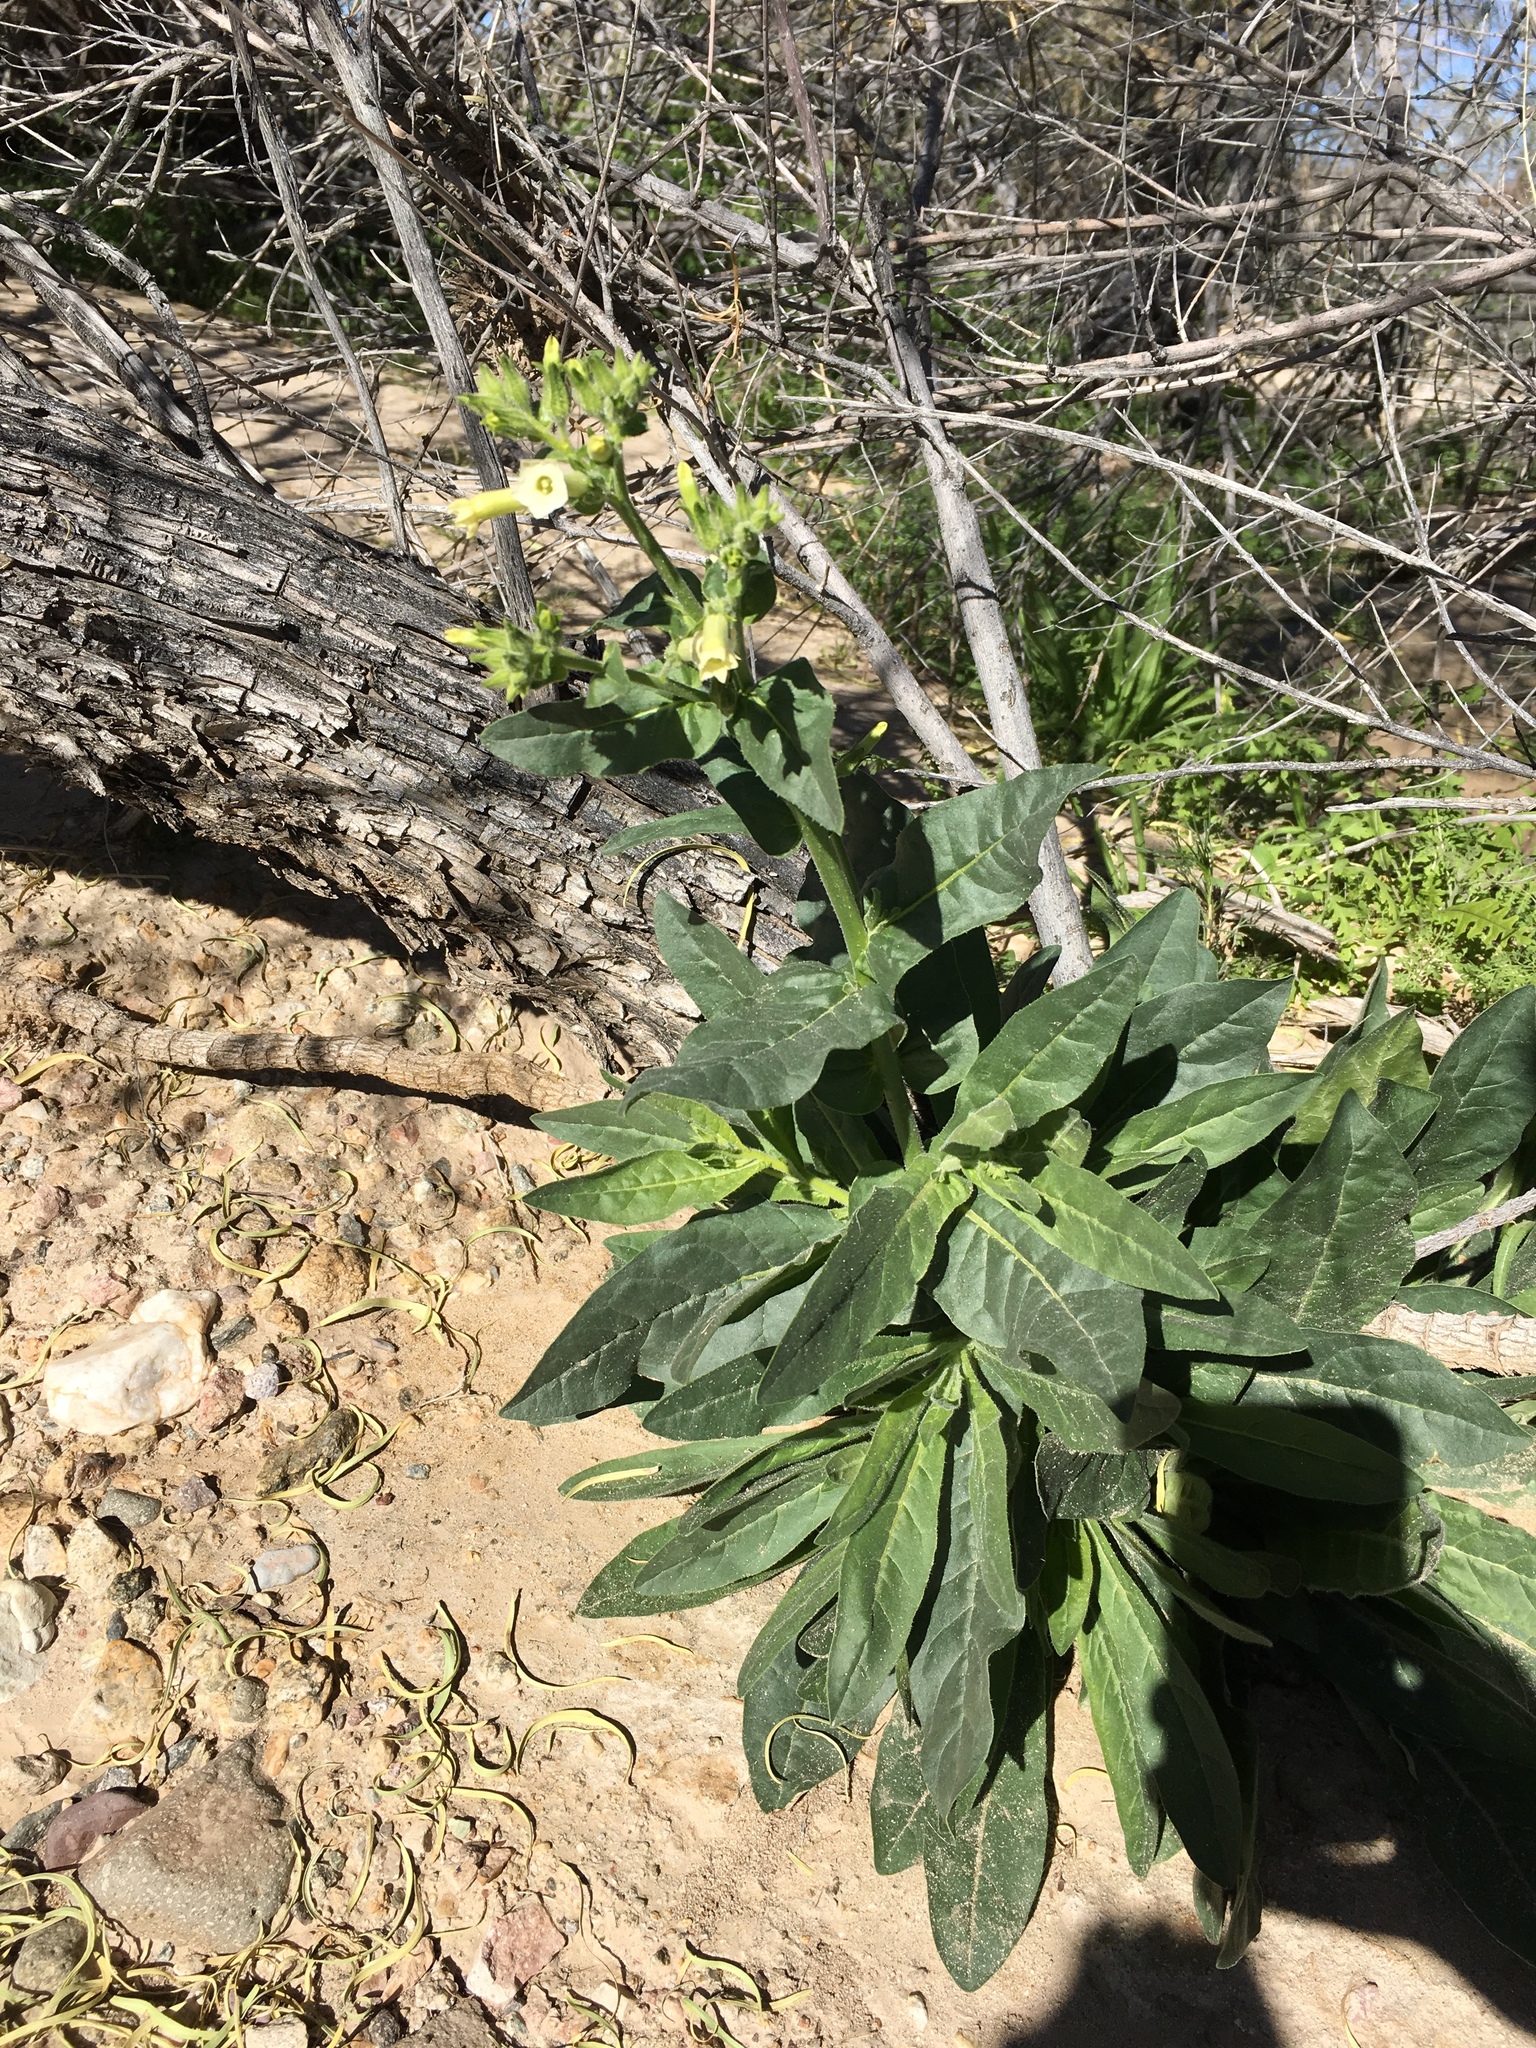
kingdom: Plantae
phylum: Tracheophyta
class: Magnoliopsida
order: Solanales
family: Solanaceae
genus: Nicotiana
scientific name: Nicotiana obtusifolia
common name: Desert tobacco
